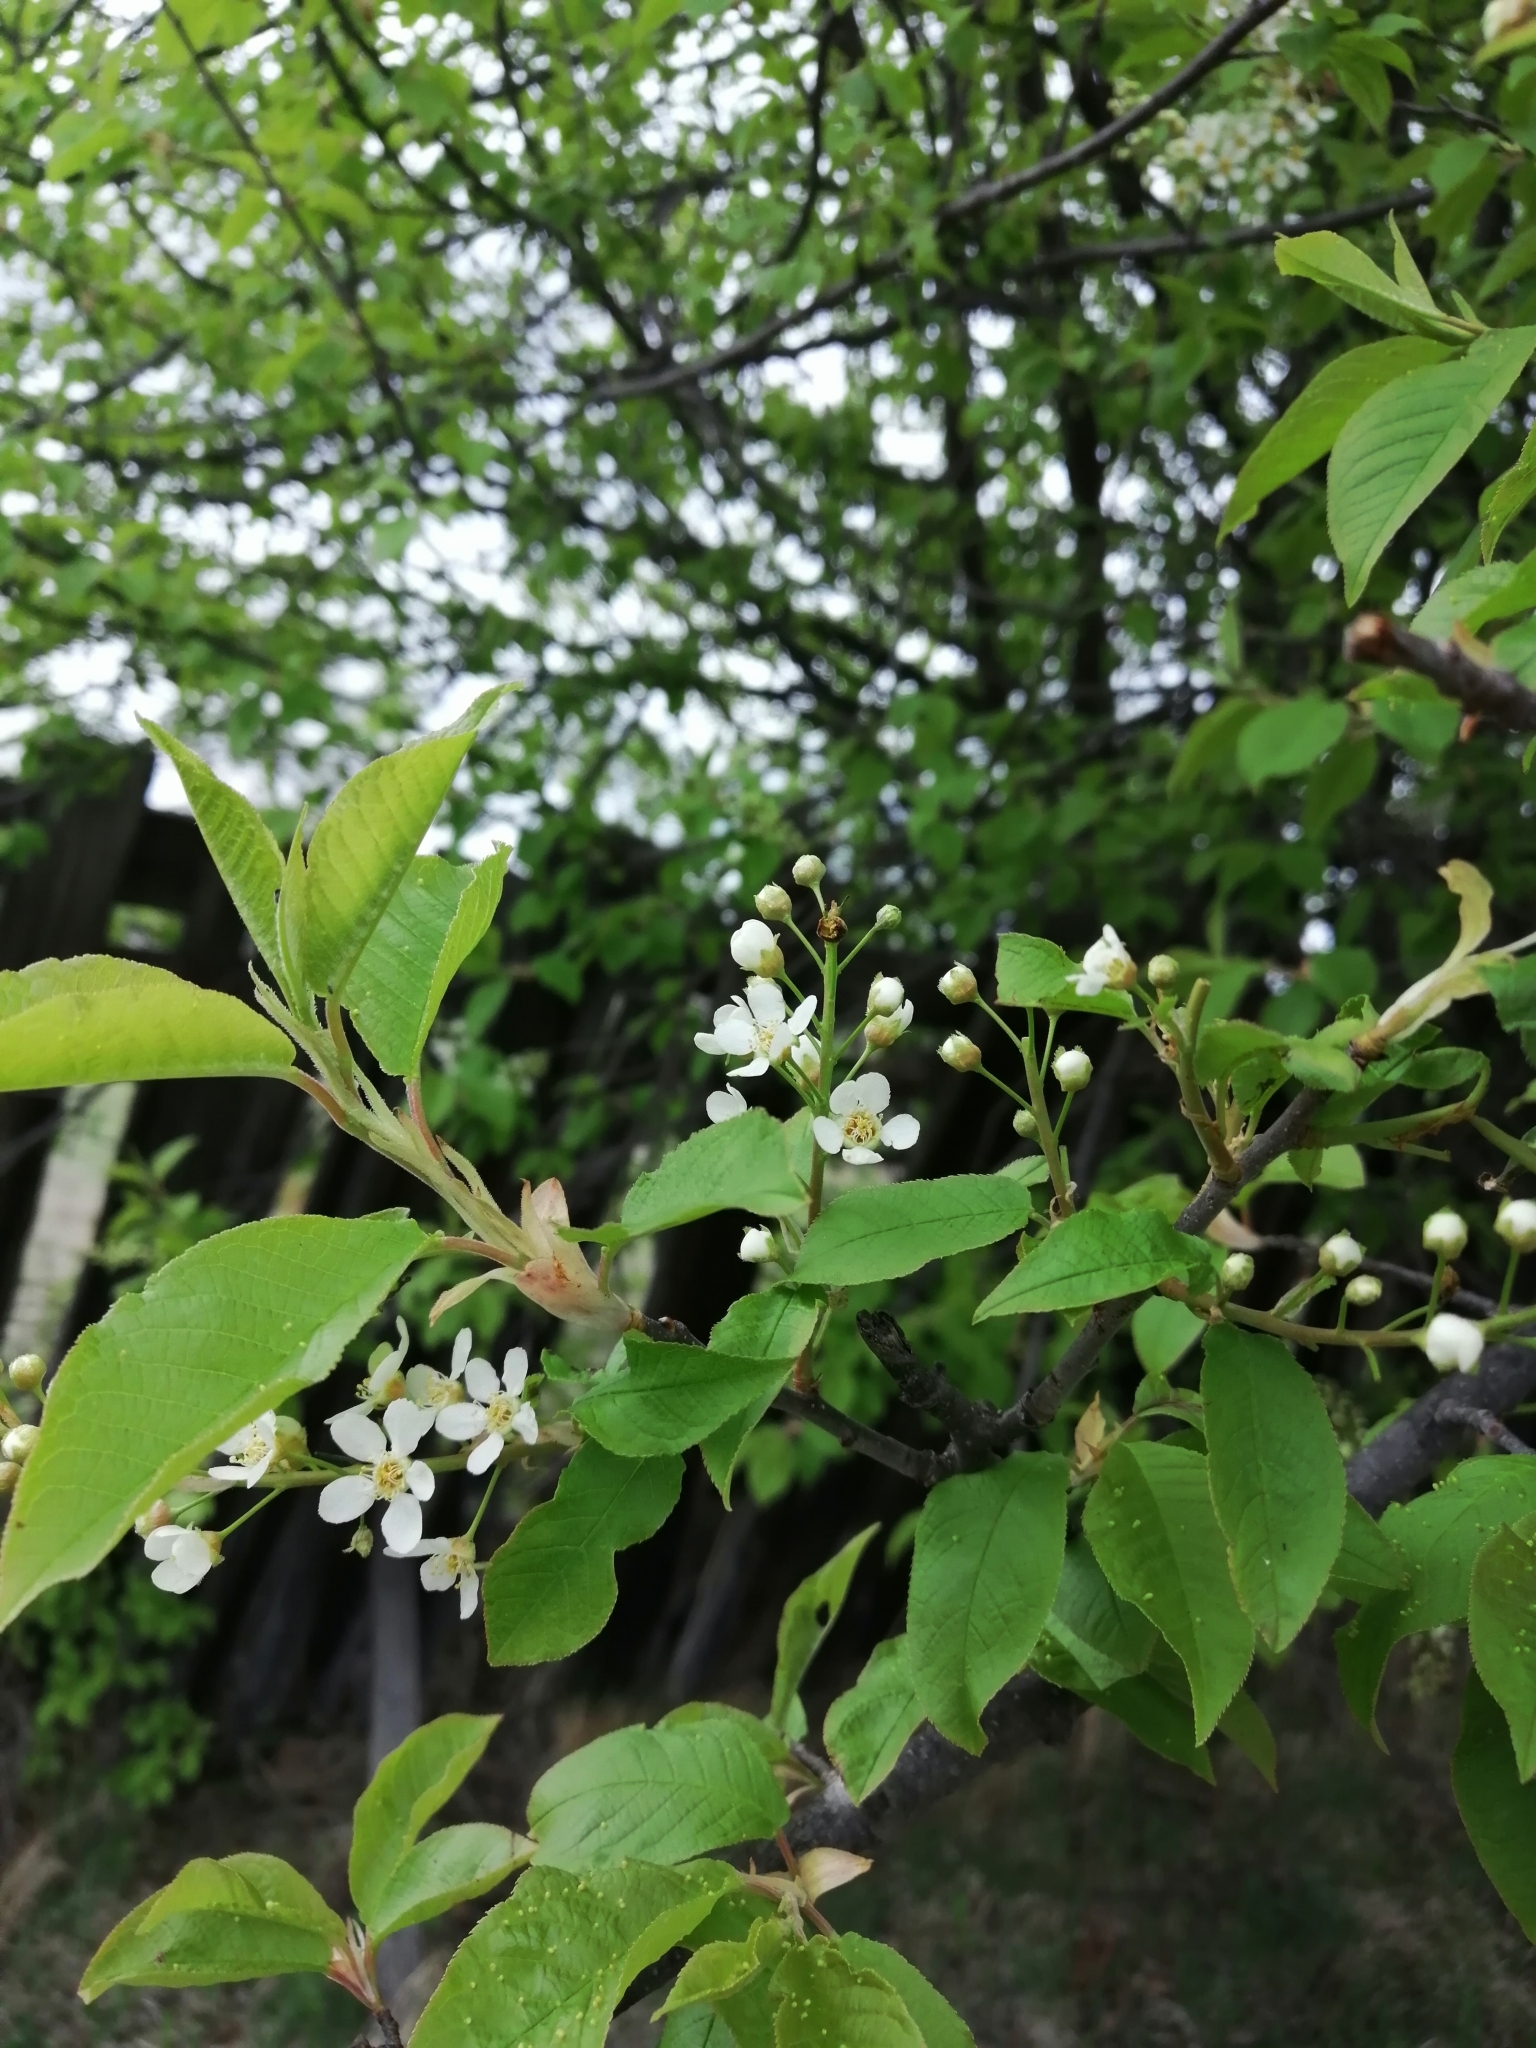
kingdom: Plantae
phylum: Tracheophyta
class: Magnoliopsida
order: Rosales
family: Rosaceae
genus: Prunus
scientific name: Prunus padus
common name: Bird cherry
